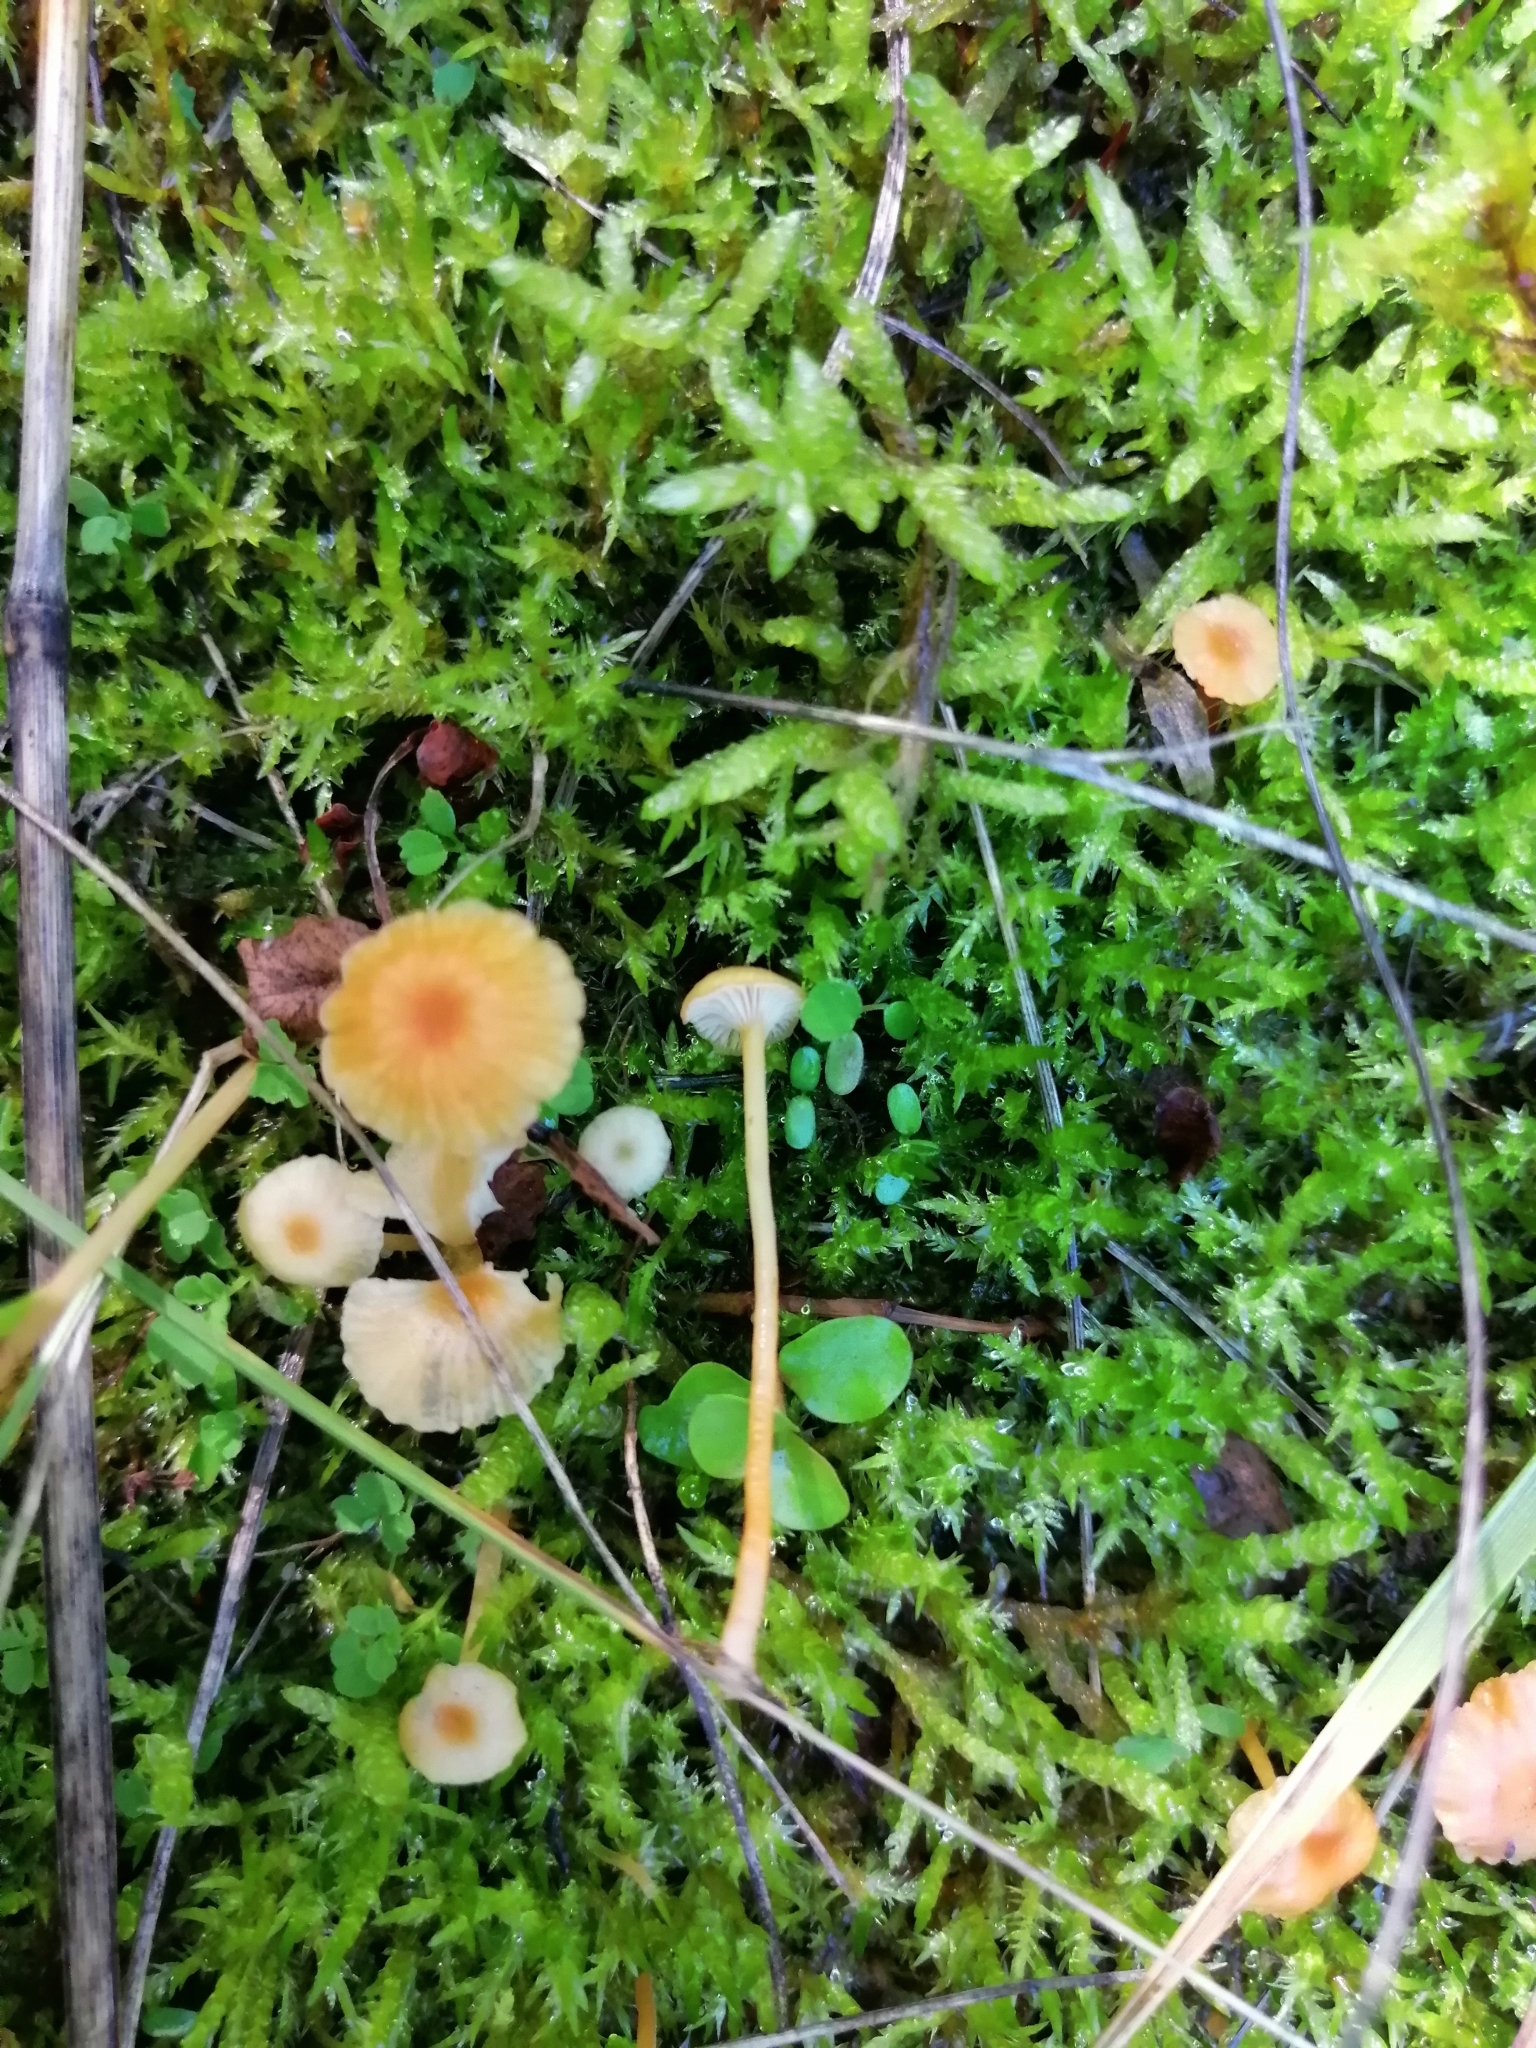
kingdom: Fungi
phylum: Basidiomycota
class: Agaricomycetes
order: Hymenochaetales
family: Rickenellaceae
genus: Rickenella
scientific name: Rickenella fibula
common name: Orange mosscap
